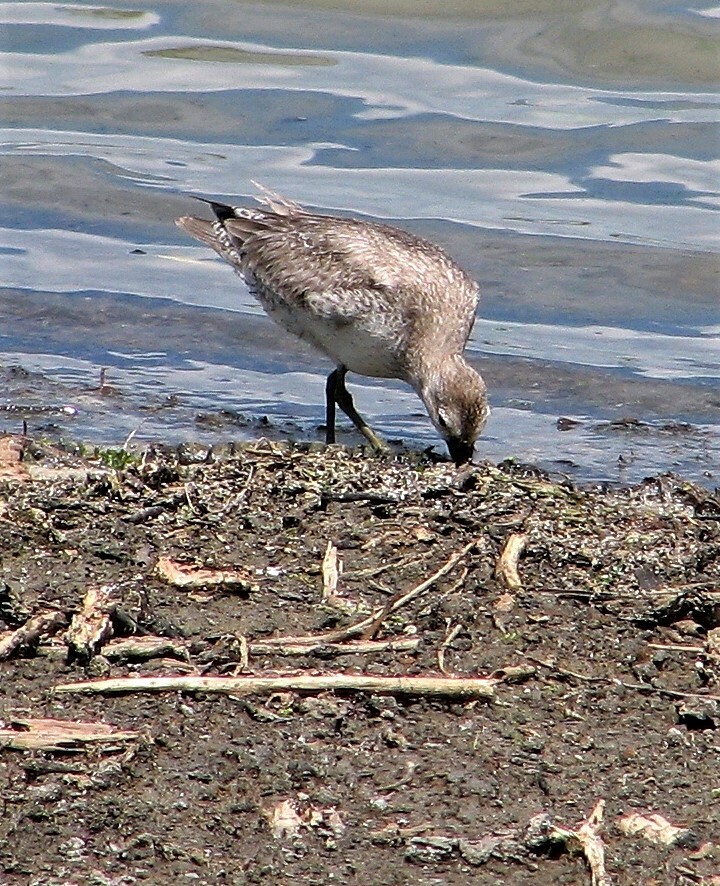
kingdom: Animalia
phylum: Chordata
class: Aves
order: Charadriiformes
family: Scolopacidae
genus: Calidris
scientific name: Calidris canutus
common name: Red knot
